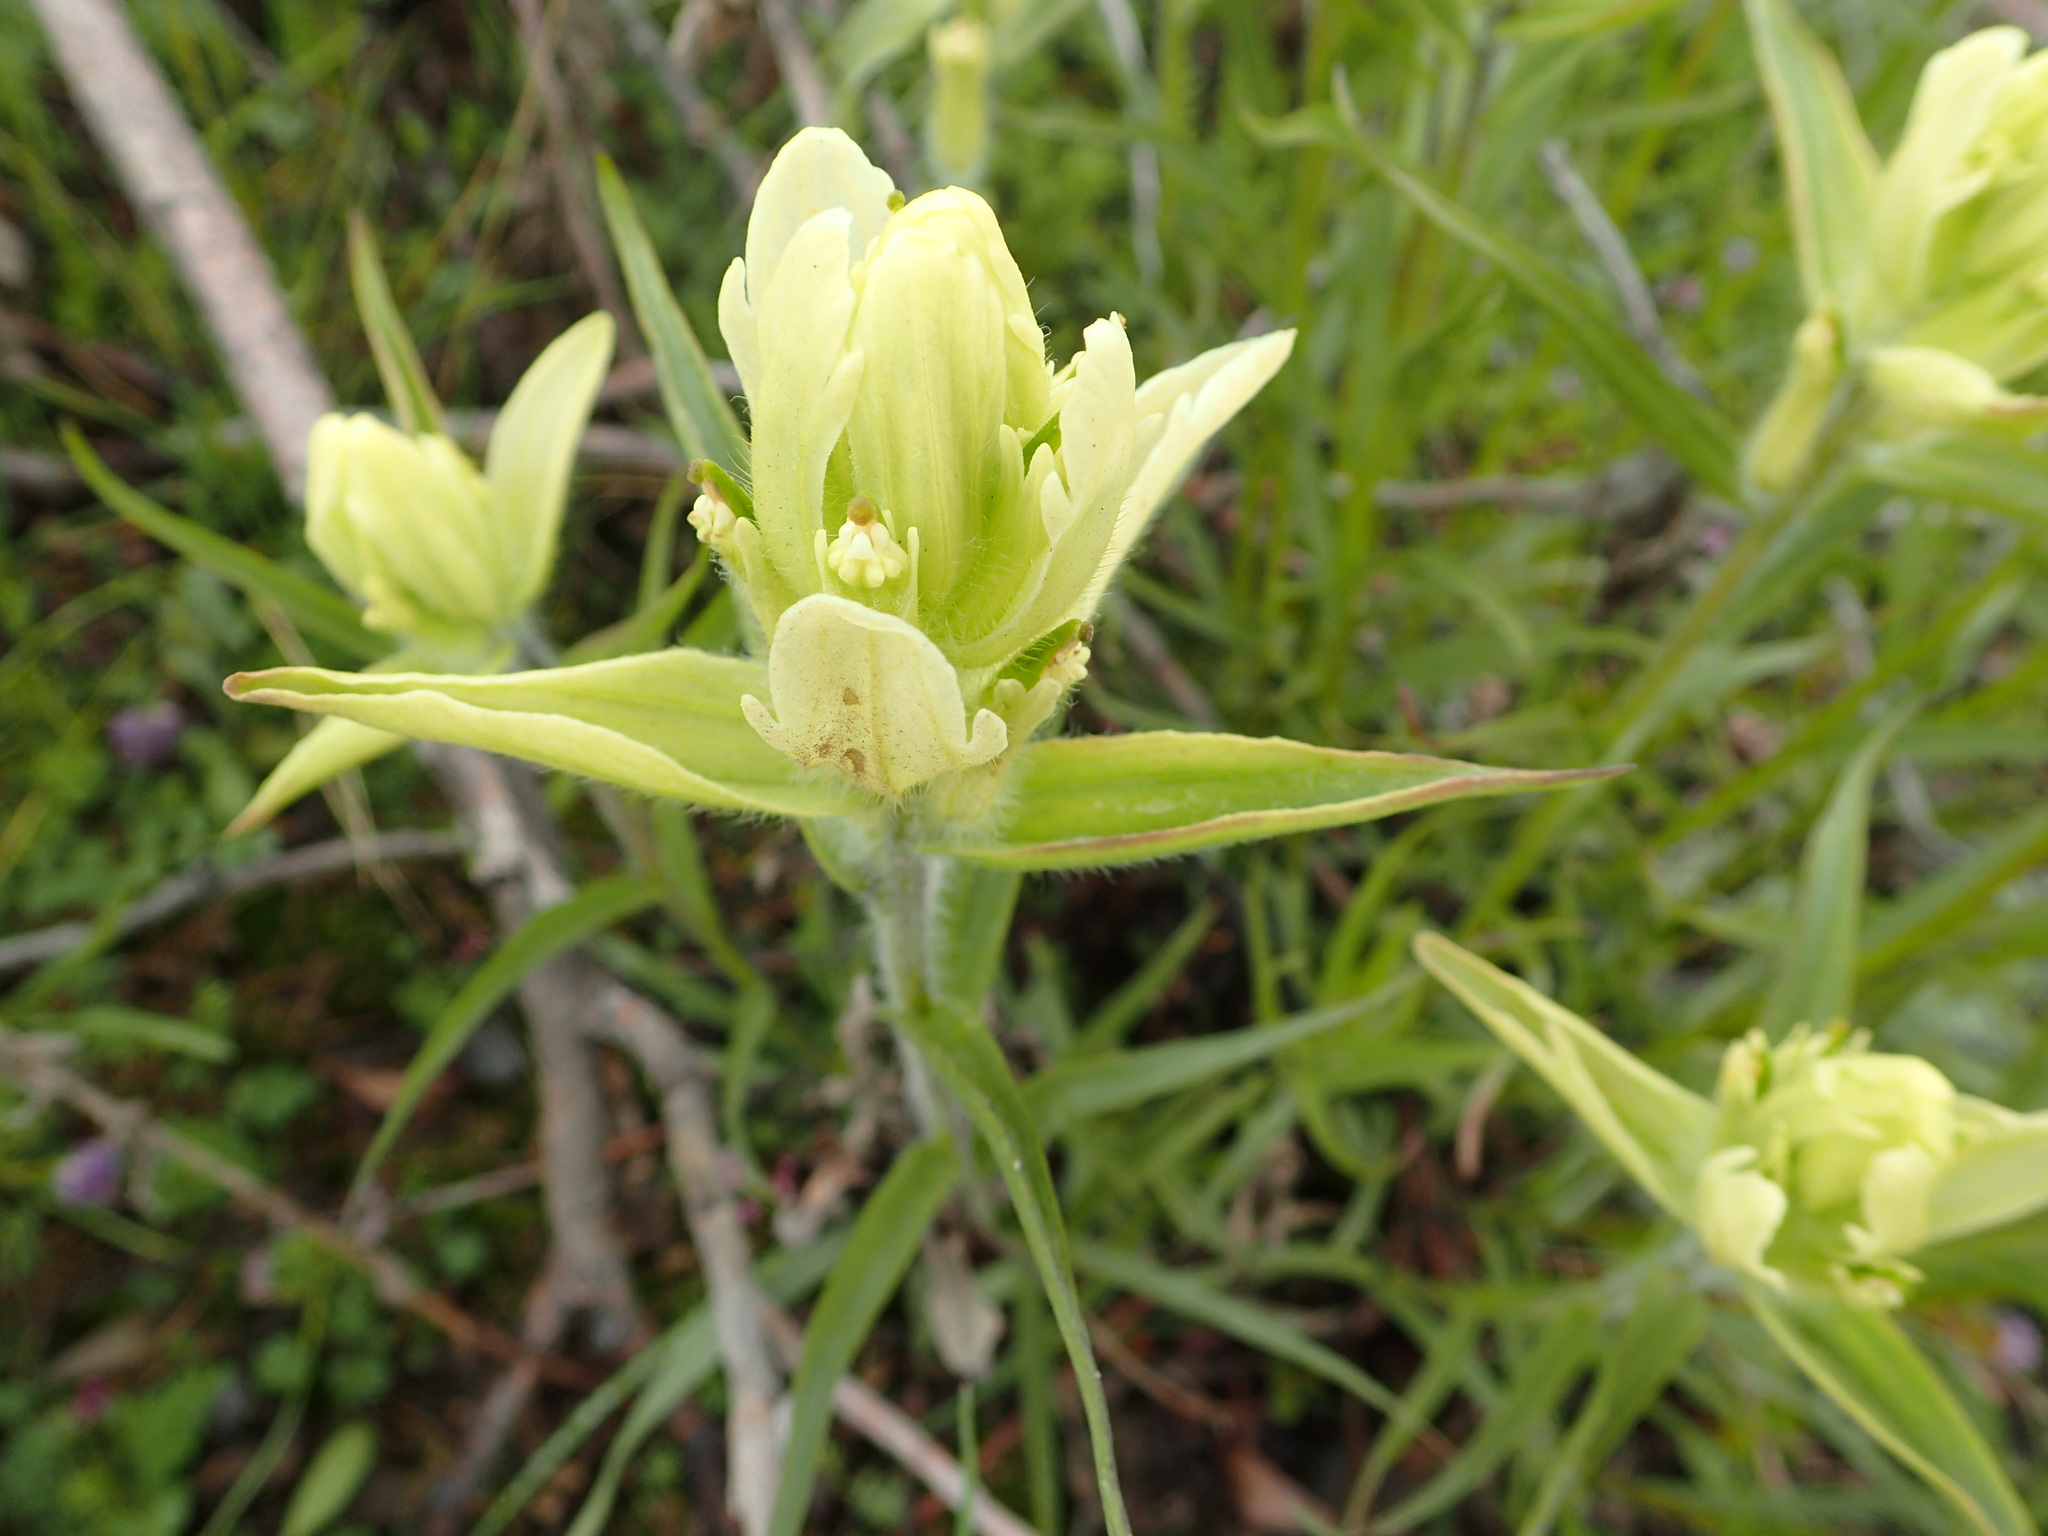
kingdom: Plantae
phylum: Tracheophyta
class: Magnoliopsida
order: Lamiales
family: Orobanchaceae
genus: Castilleja
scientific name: Castilleja pallida
